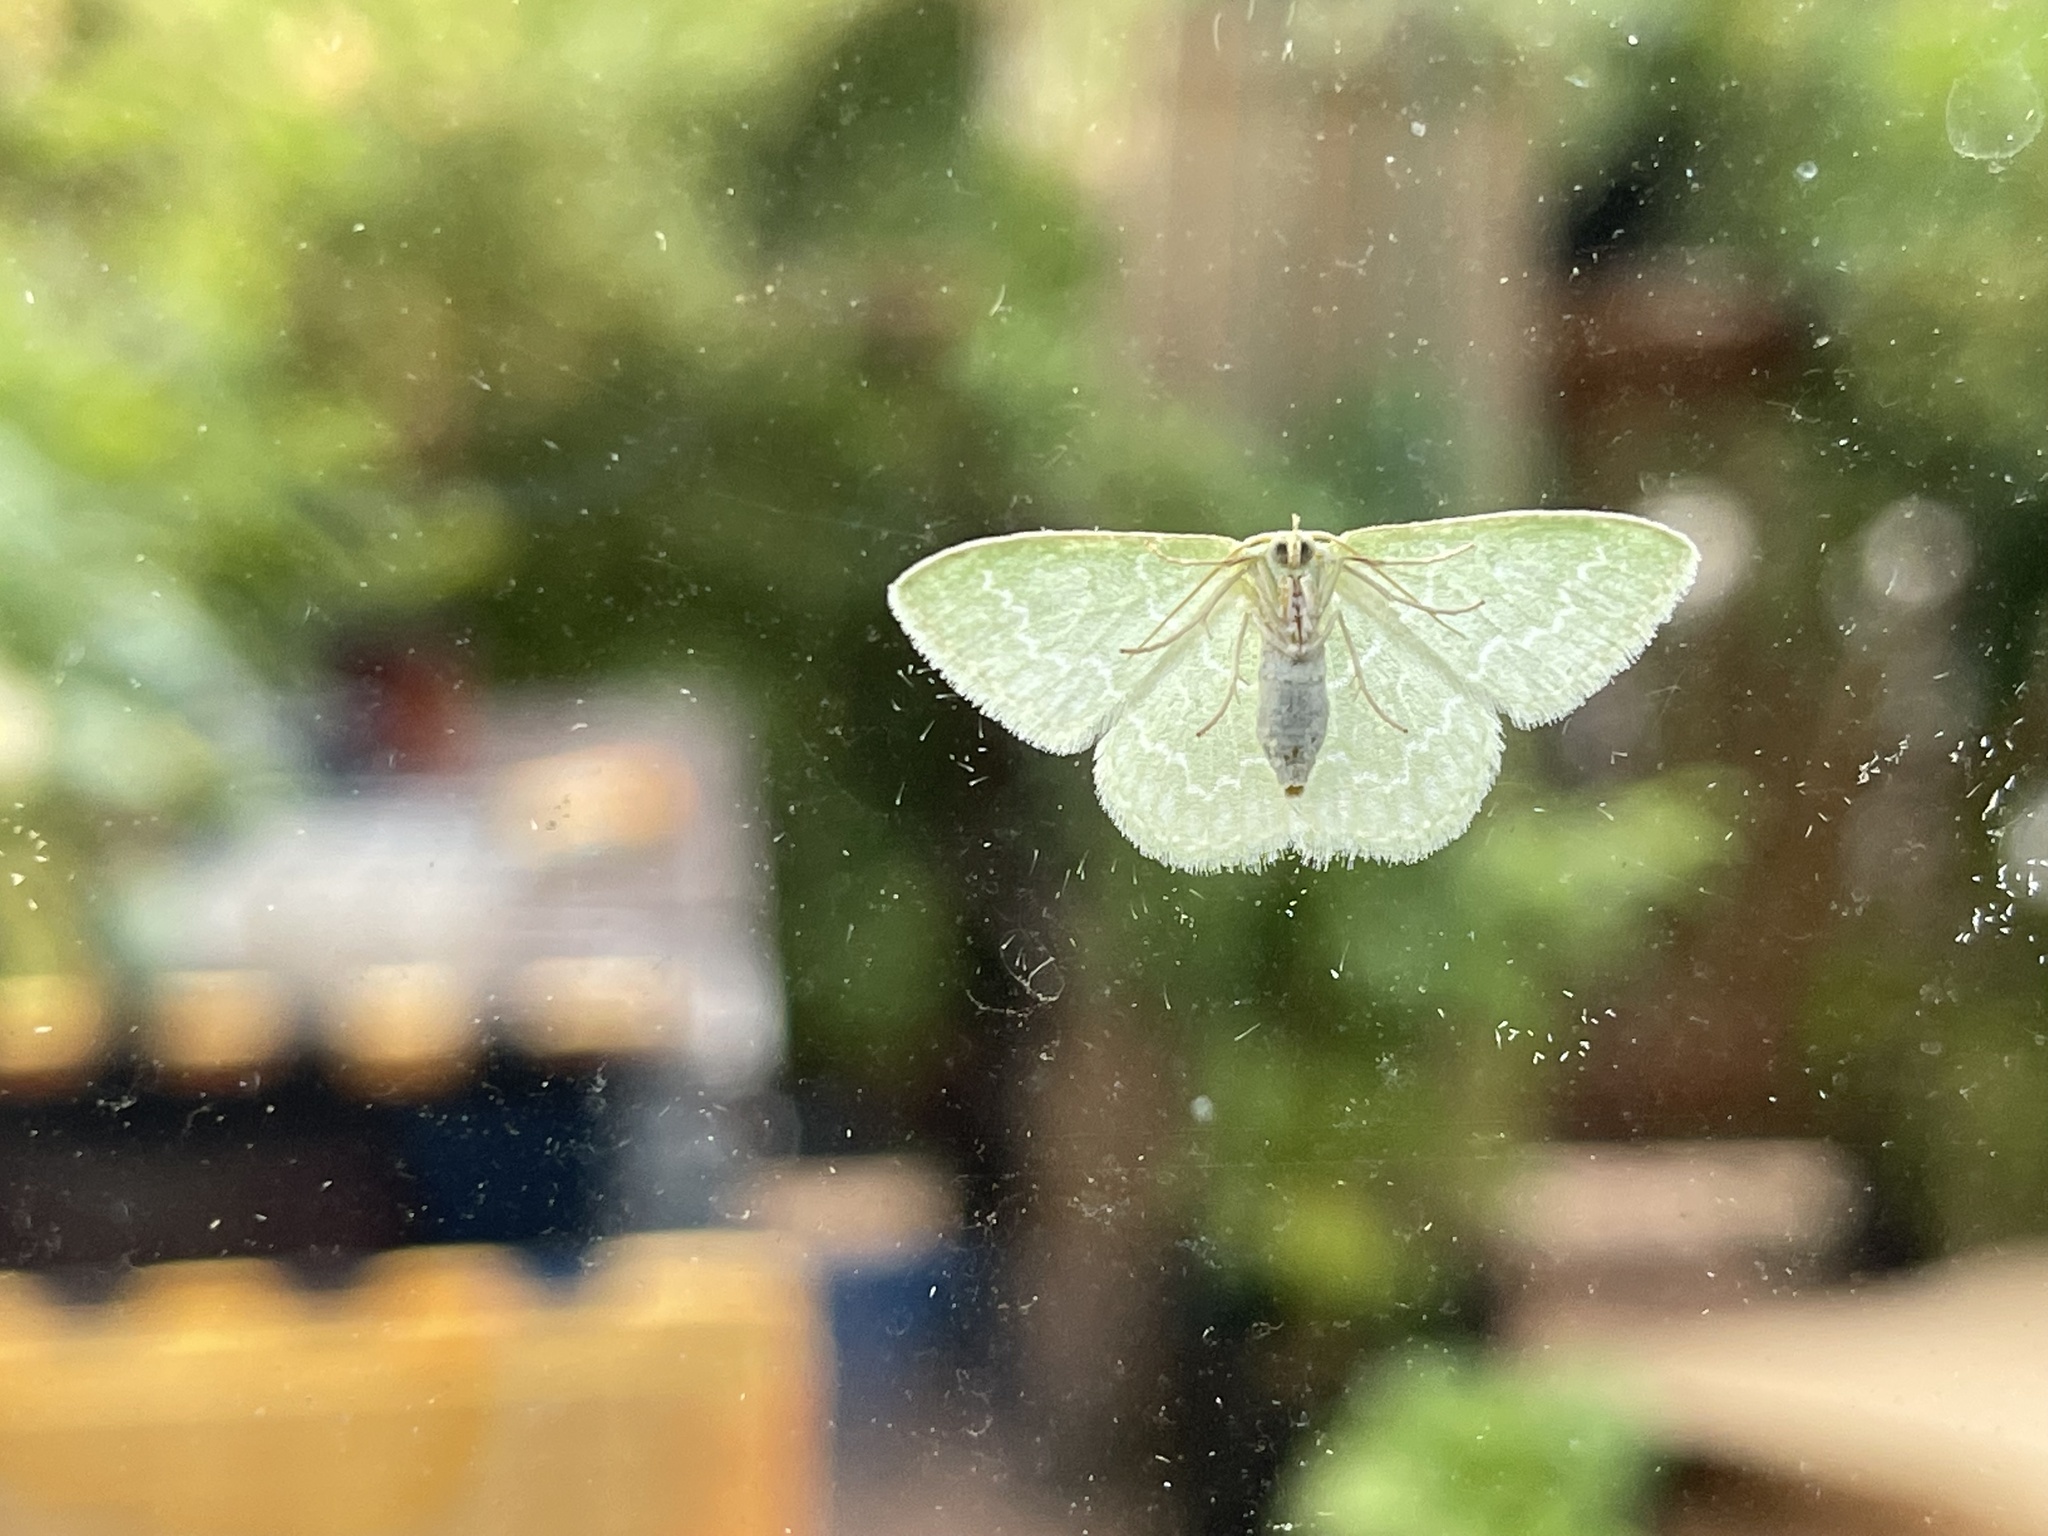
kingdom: Animalia
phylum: Arthropoda
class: Insecta
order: Lepidoptera
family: Geometridae
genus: Synchlora
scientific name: Synchlora frondaria
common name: Southern emerald
